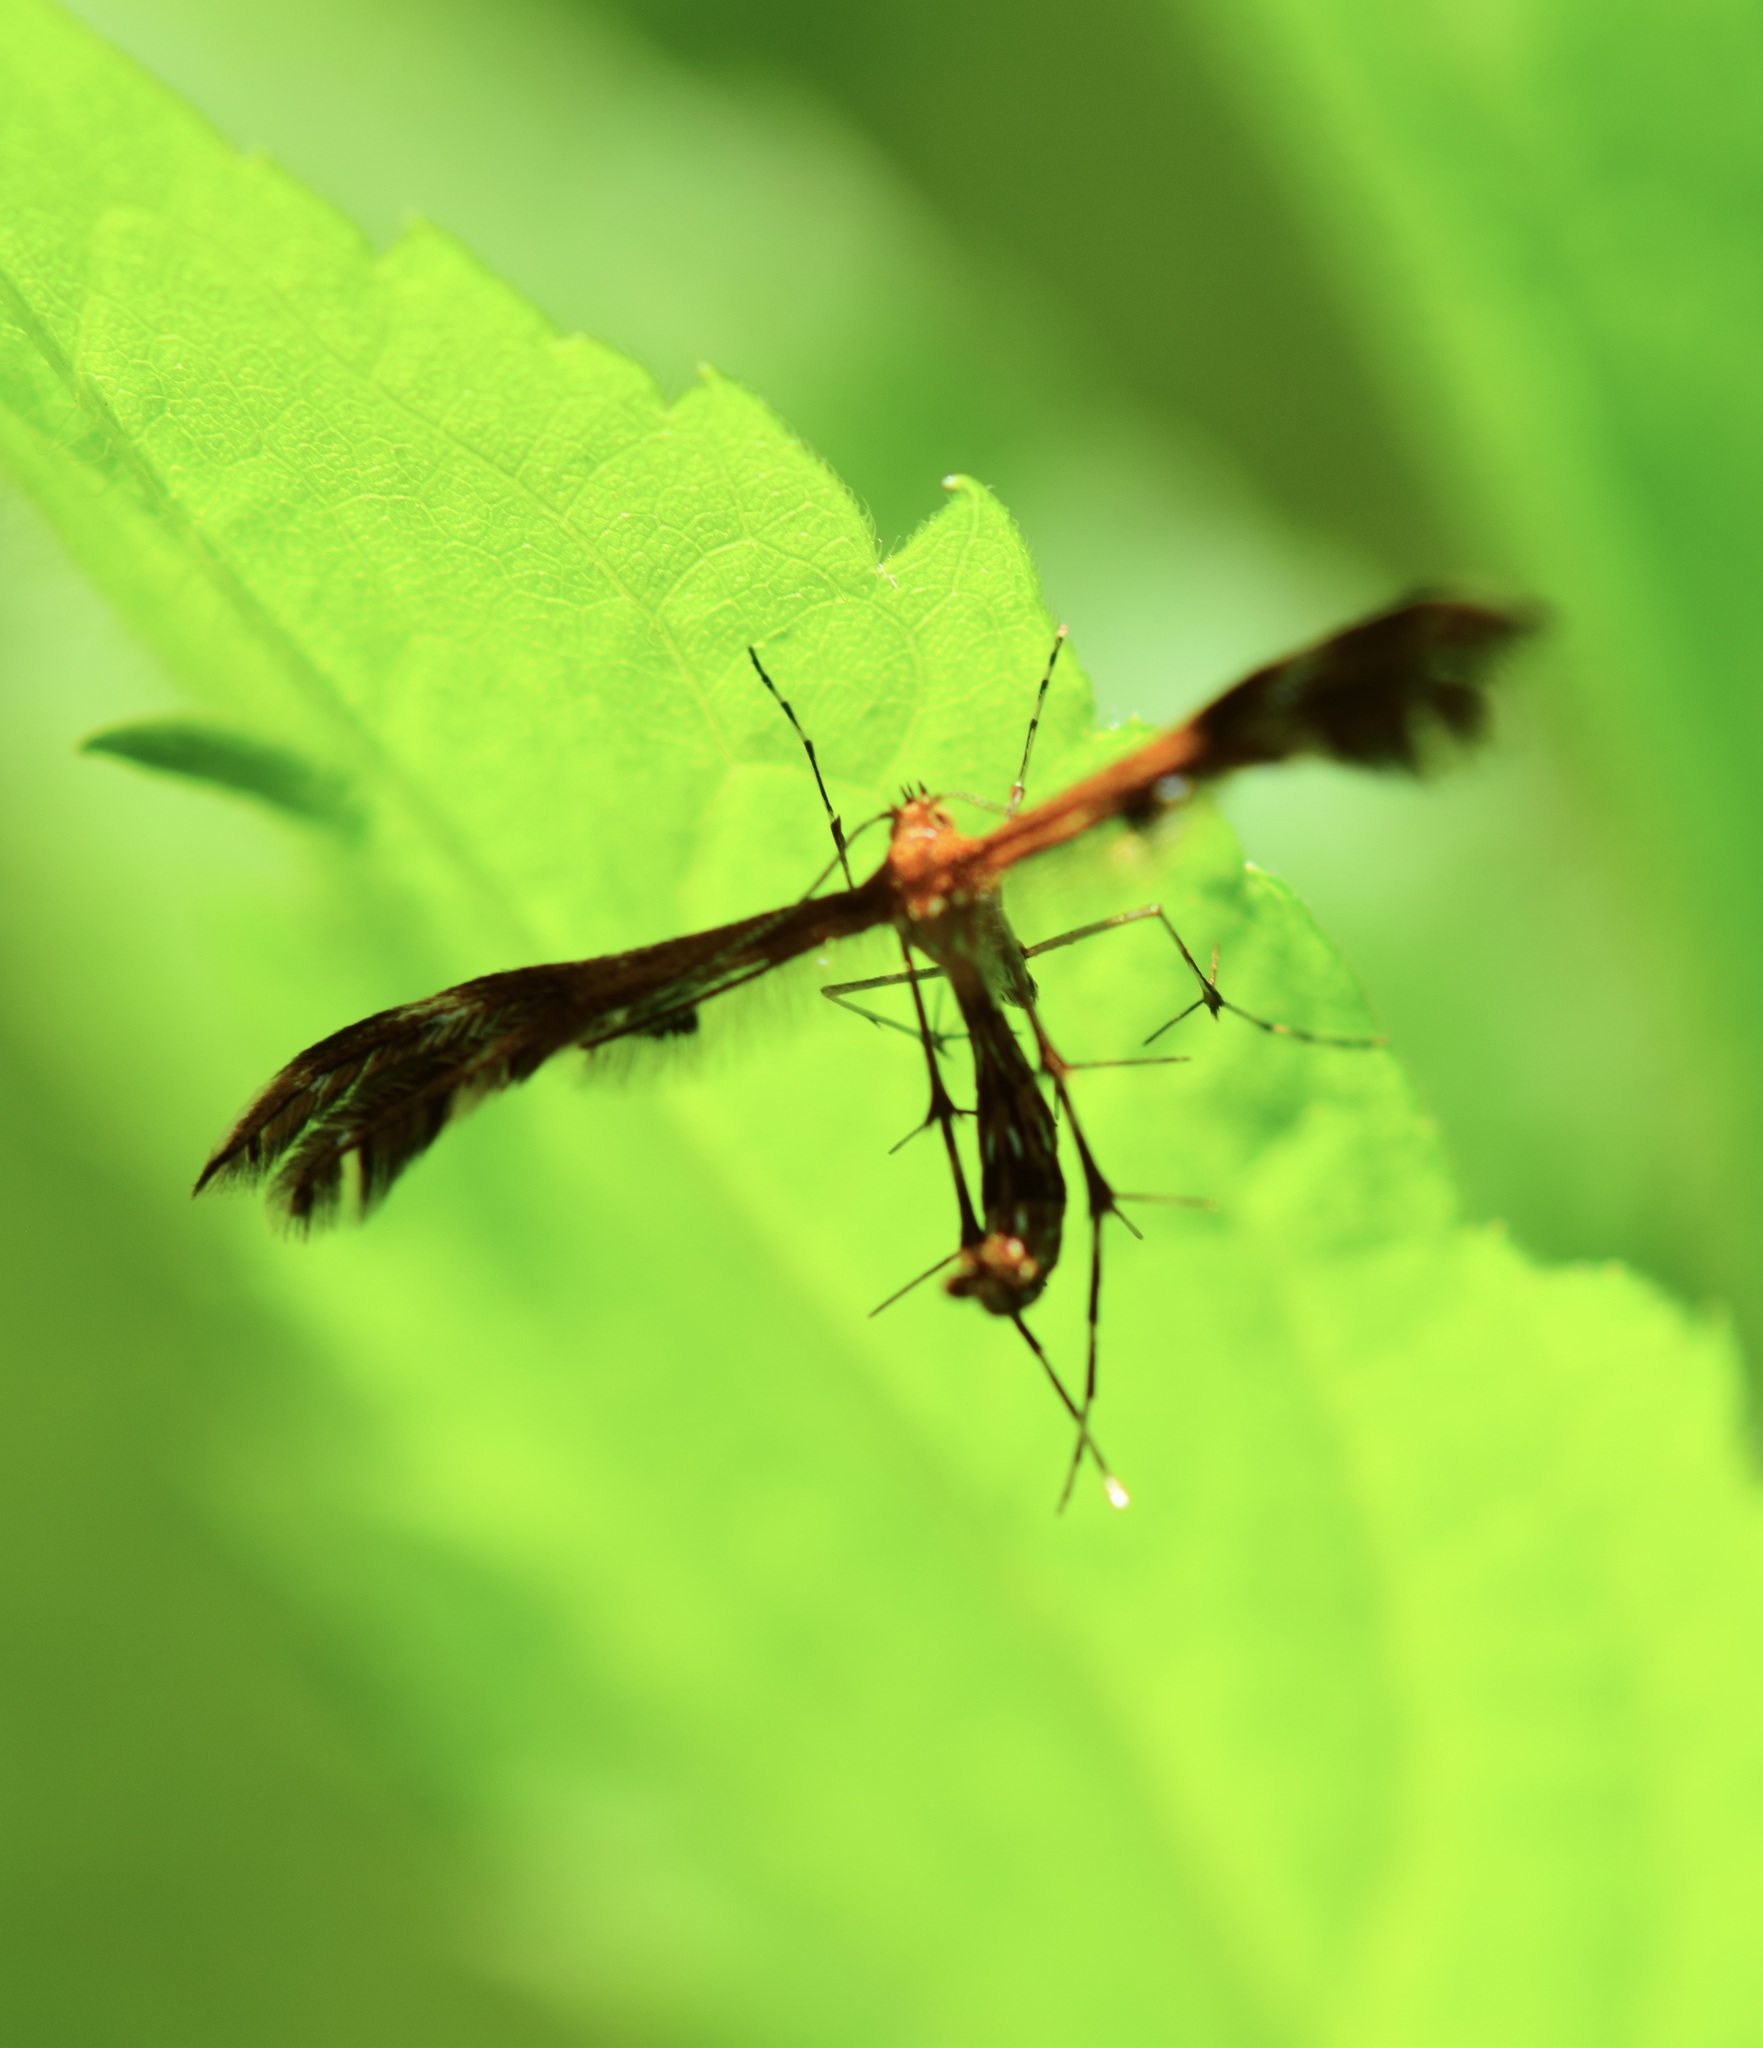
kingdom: Animalia
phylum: Arthropoda
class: Insecta
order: Lepidoptera
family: Pterophoridae
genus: Dejongia
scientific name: Dejongia lobidactylus
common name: Lobed plume moth
